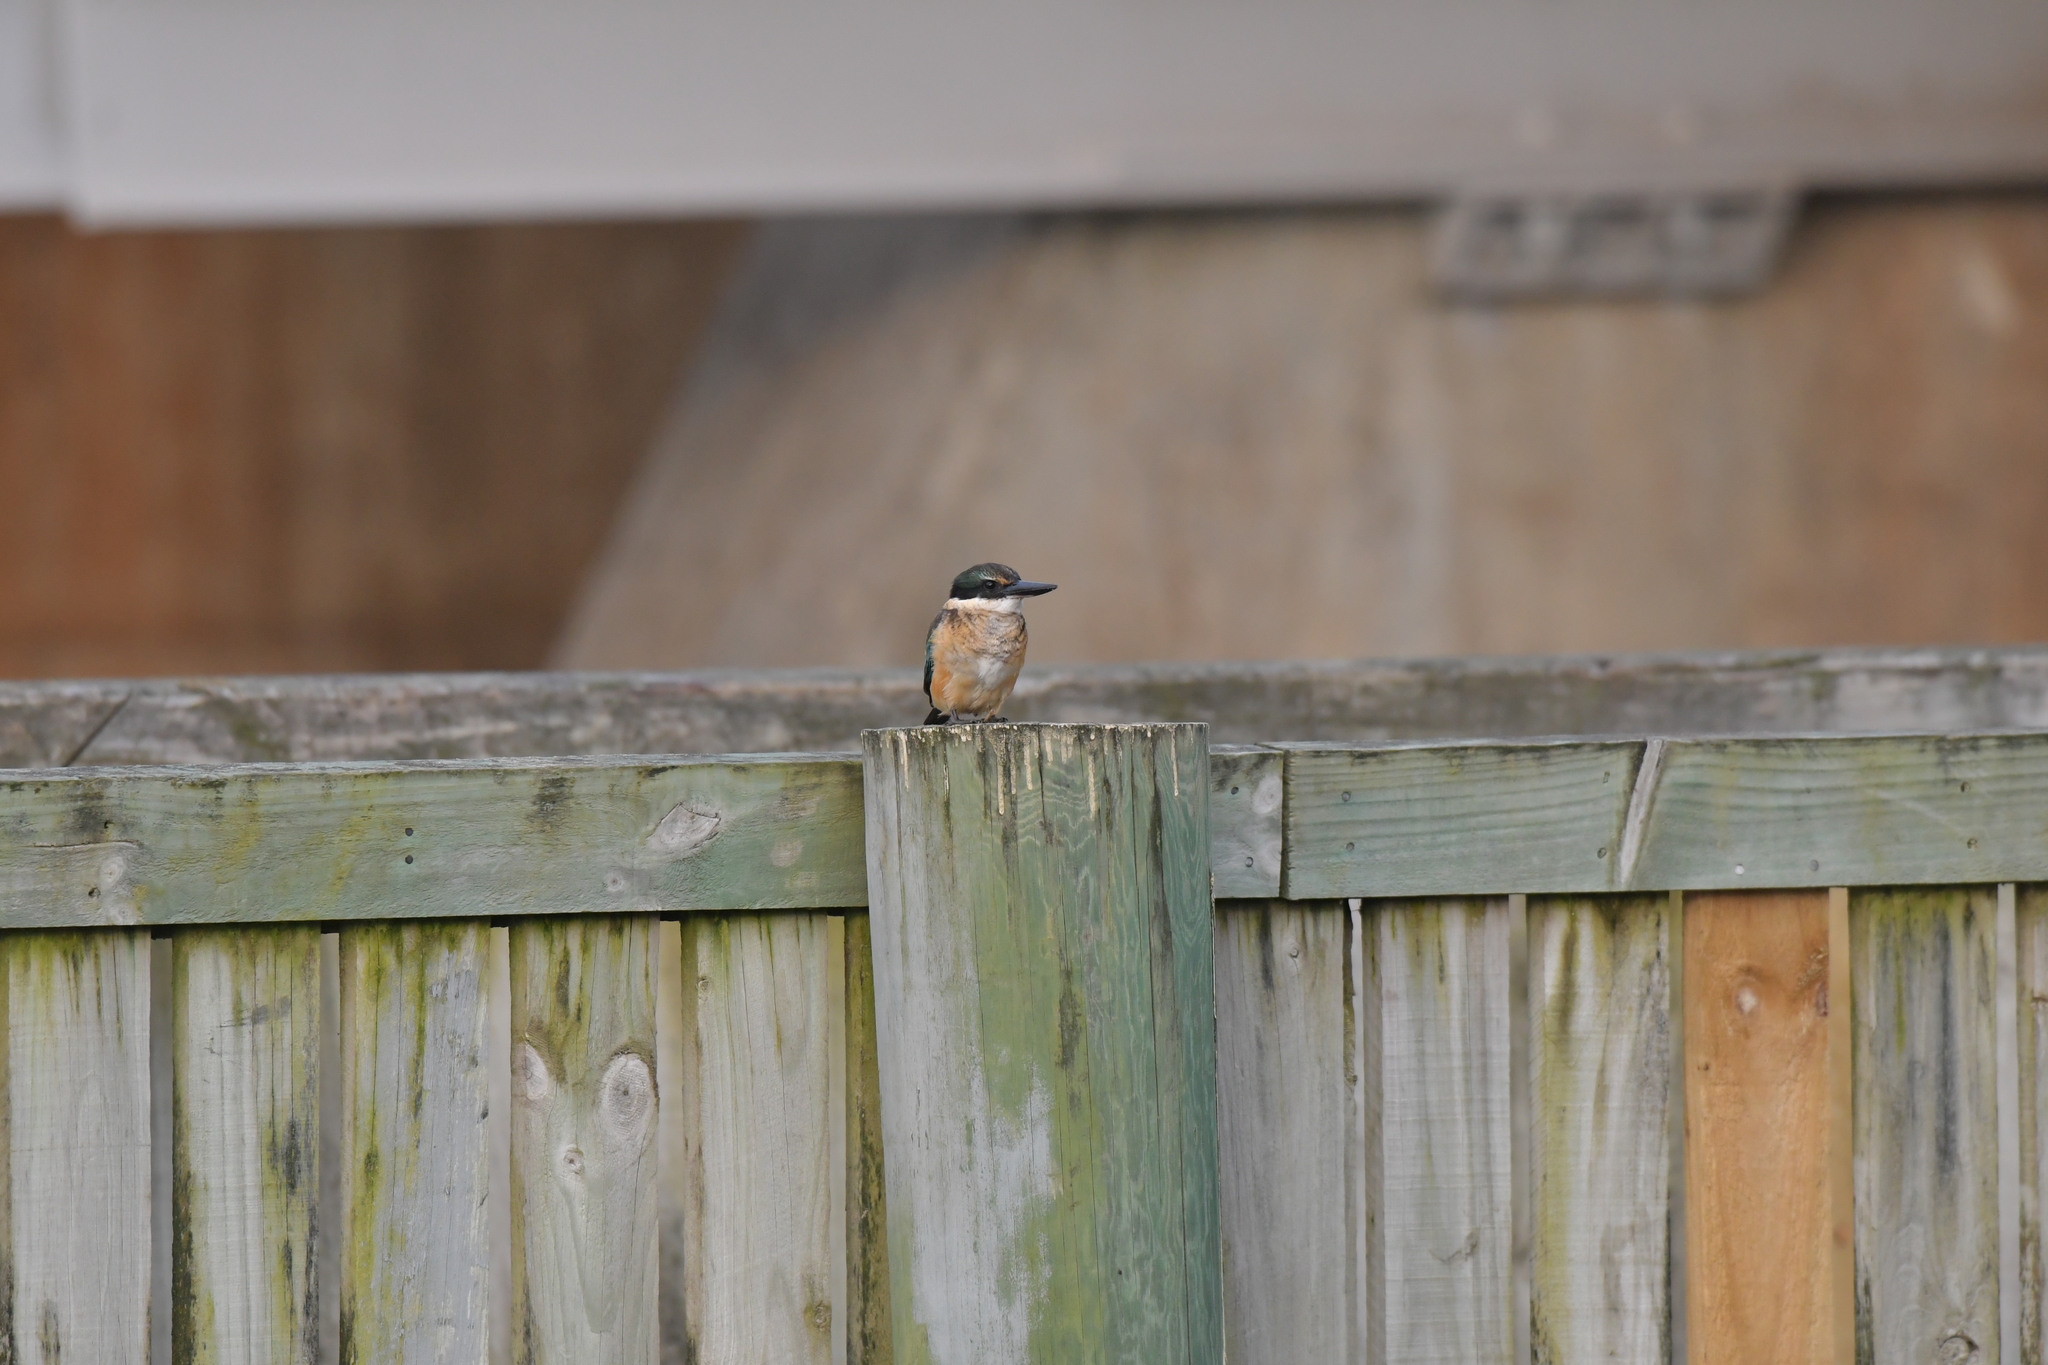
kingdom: Animalia
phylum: Chordata
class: Aves
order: Coraciiformes
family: Alcedinidae
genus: Todiramphus
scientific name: Todiramphus sanctus
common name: Sacred kingfisher
